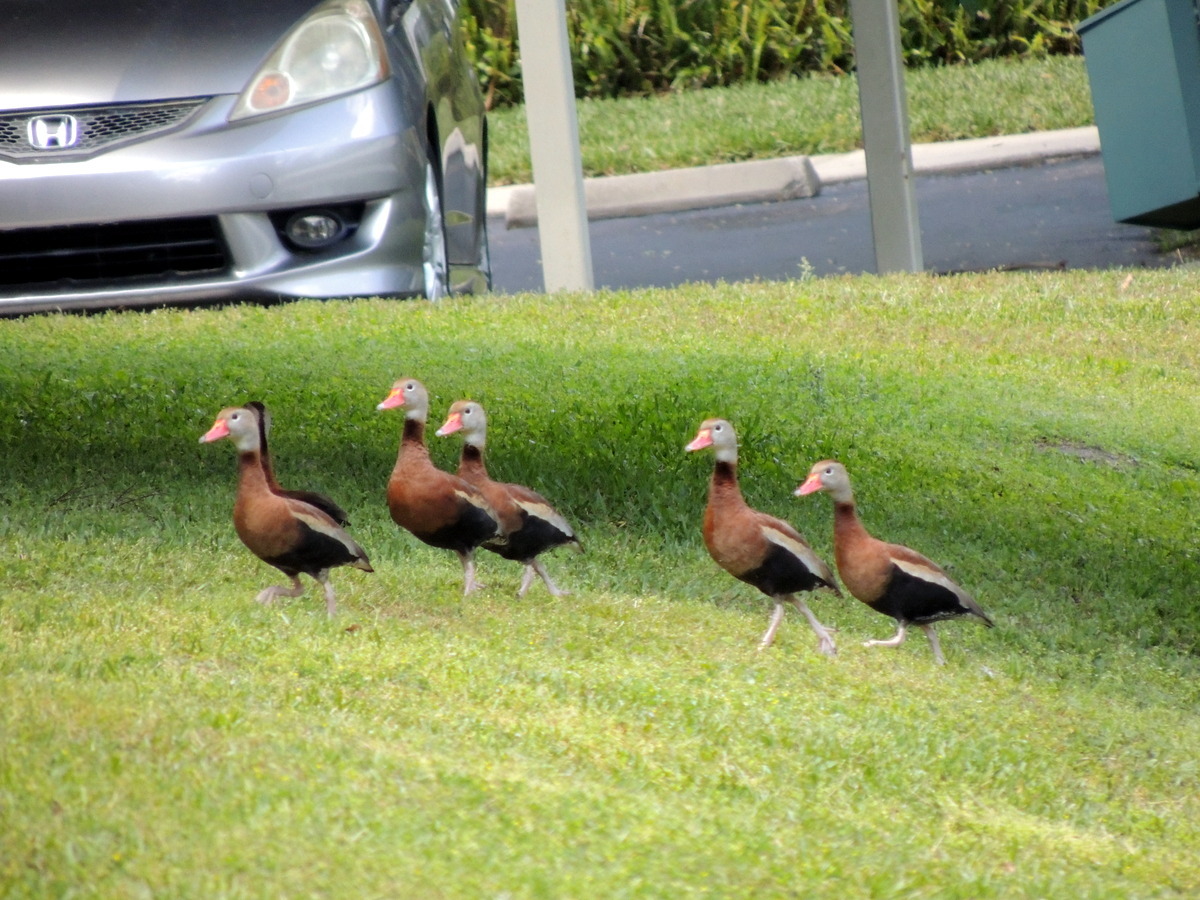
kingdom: Animalia
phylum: Chordata
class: Aves
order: Anseriformes
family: Anatidae
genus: Dendrocygna
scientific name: Dendrocygna autumnalis
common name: Black-bellied whistling duck
